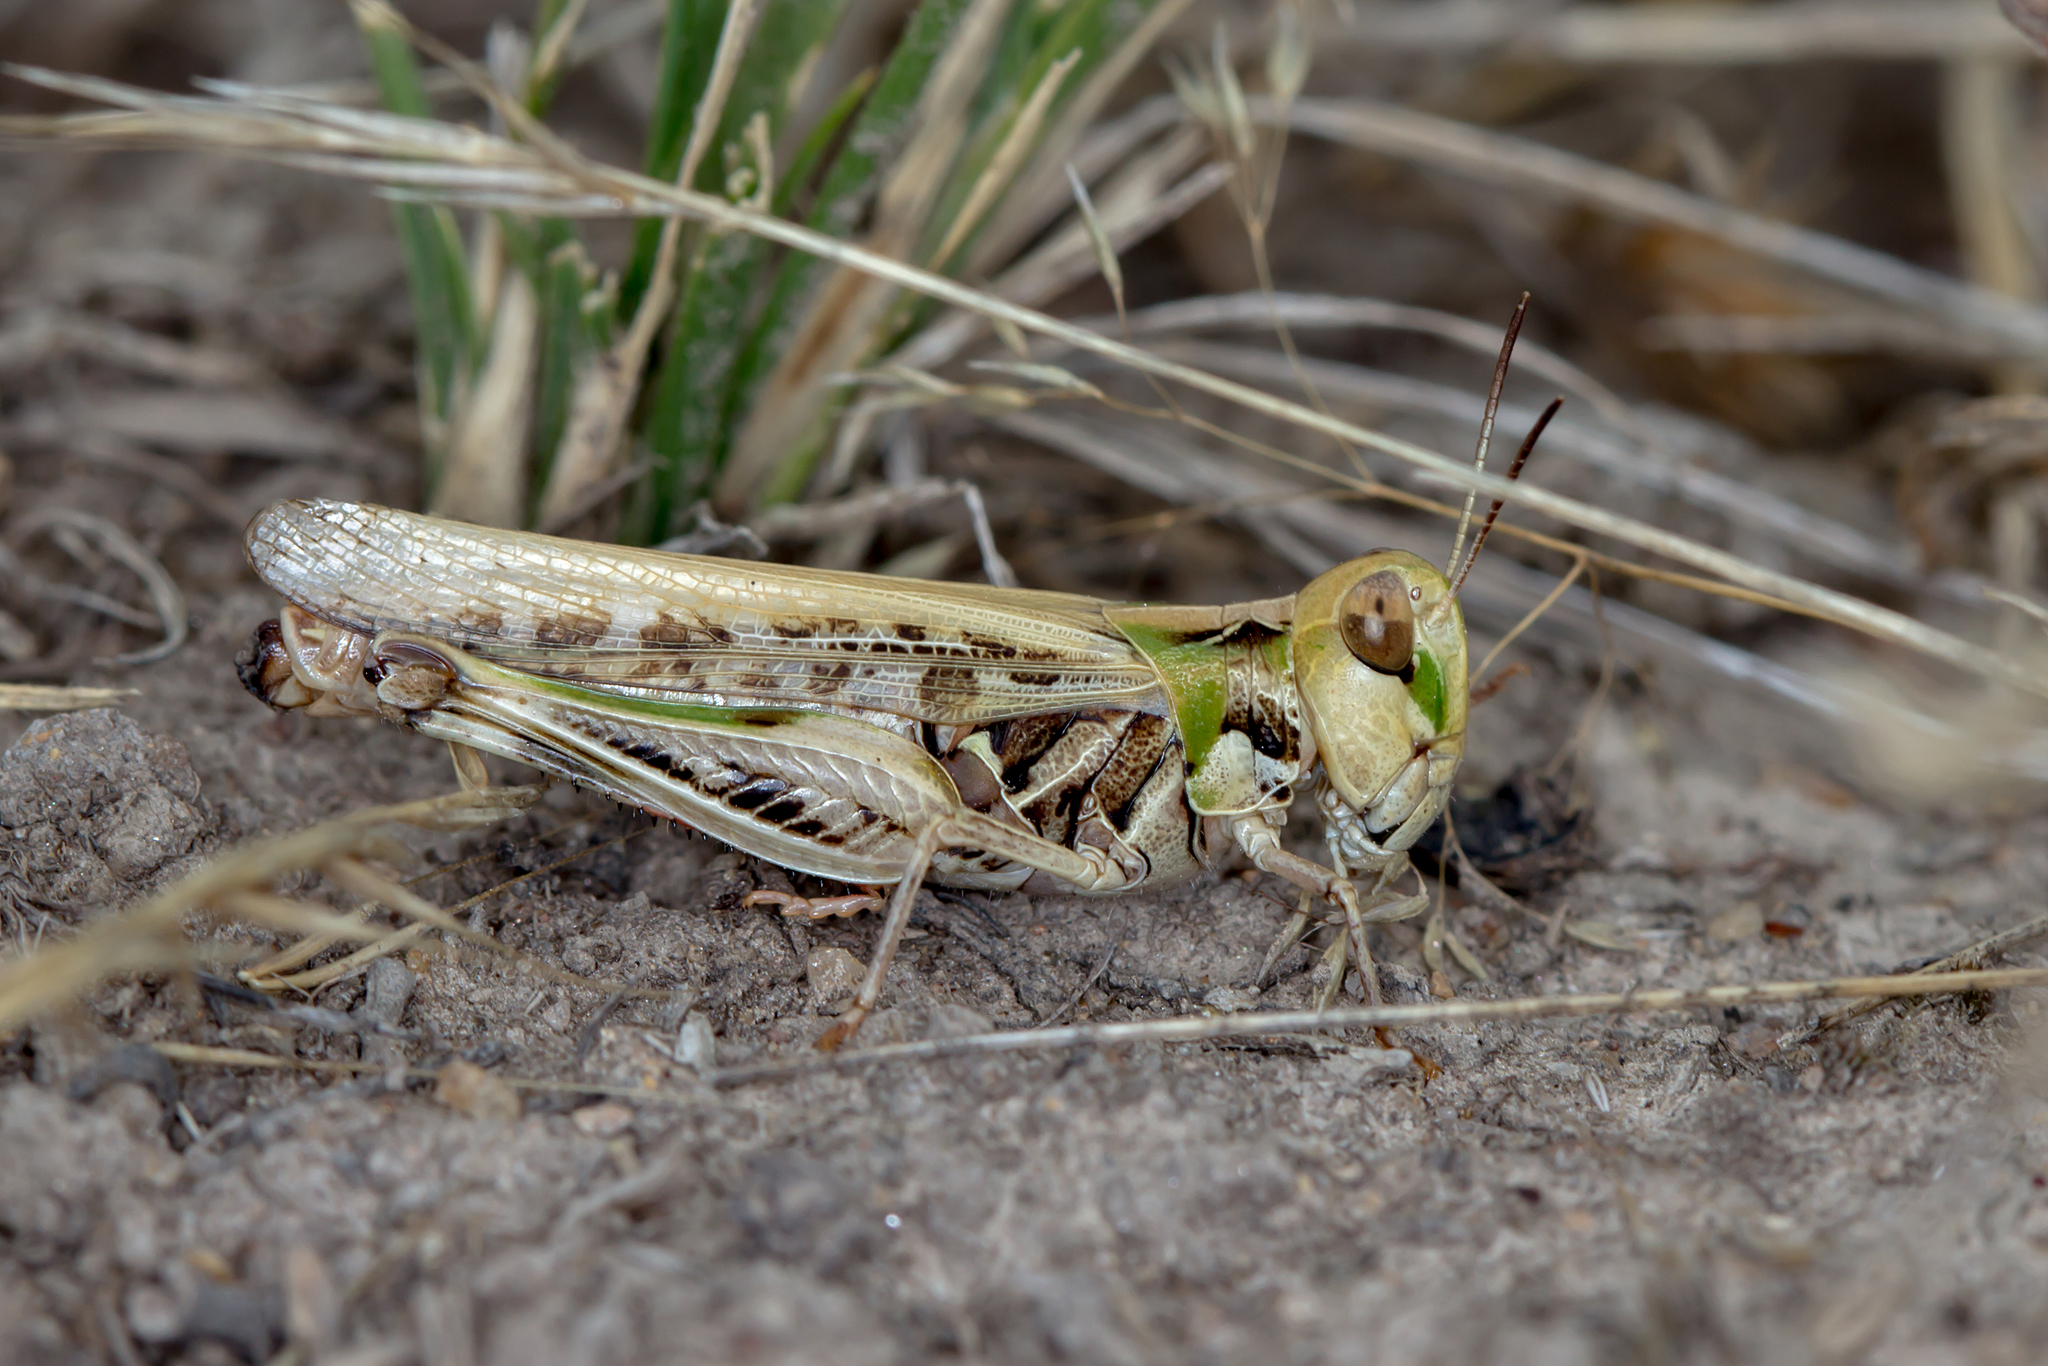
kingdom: Animalia
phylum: Arthropoda
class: Insecta
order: Orthoptera
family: Acrididae
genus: Chortoicetes
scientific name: Chortoicetes terminifera
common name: Australian plague locust
